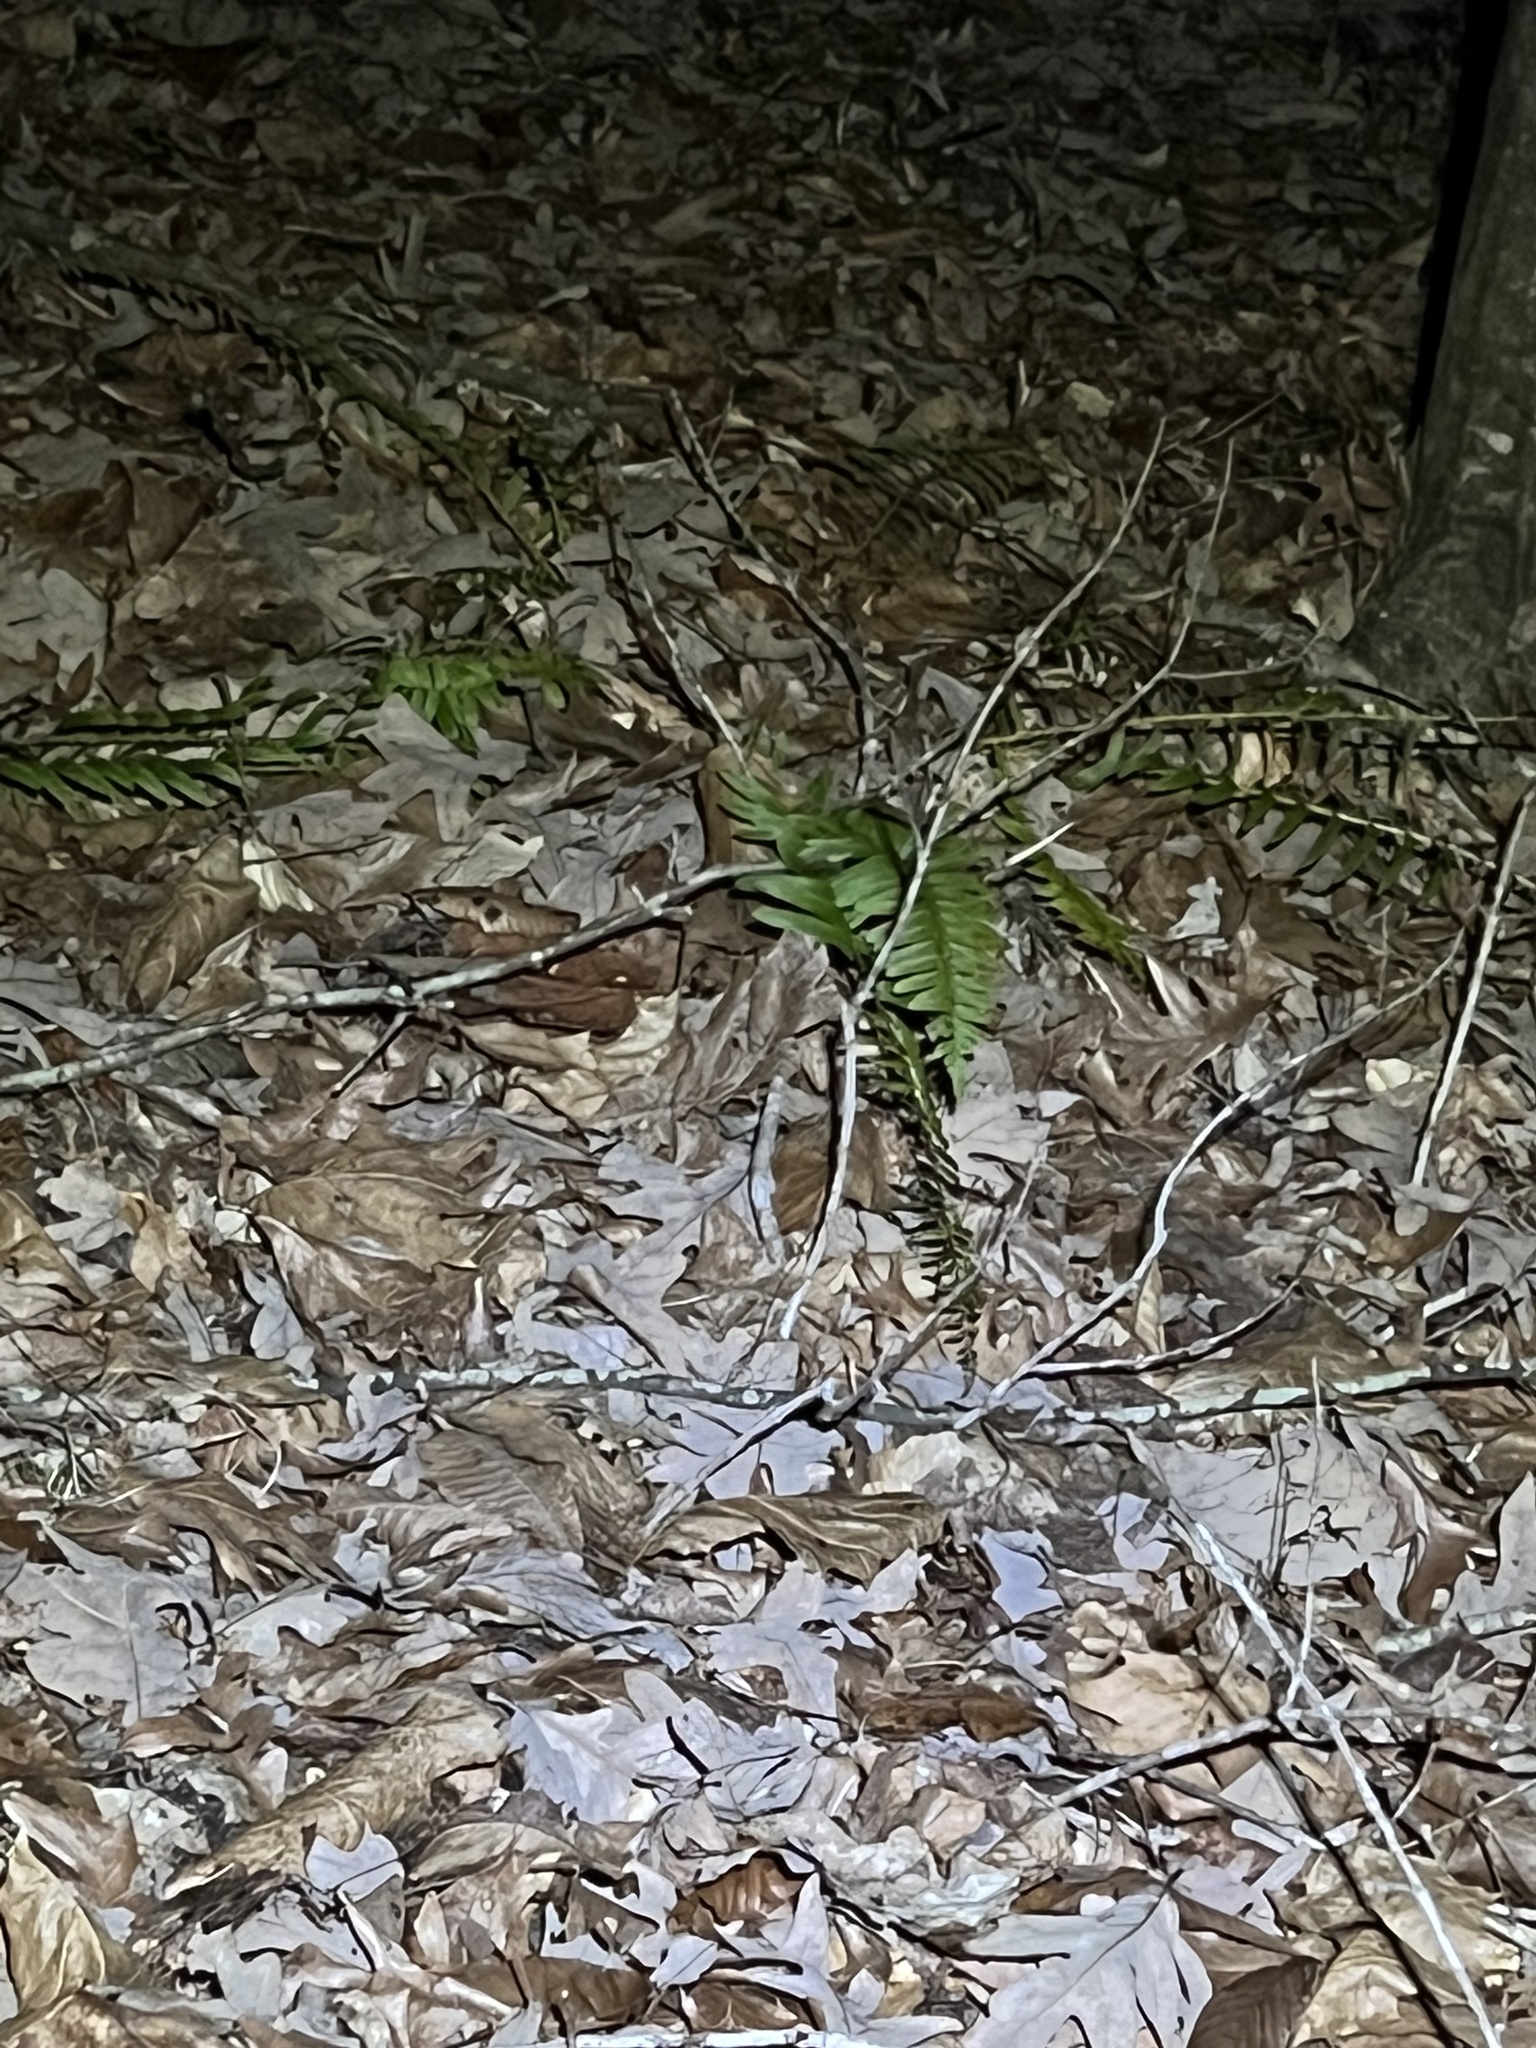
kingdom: Plantae
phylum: Tracheophyta
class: Polypodiopsida
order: Polypodiales
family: Dryopteridaceae
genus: Polystichum
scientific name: Polystichum acrostichoides
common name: Christmas fern
